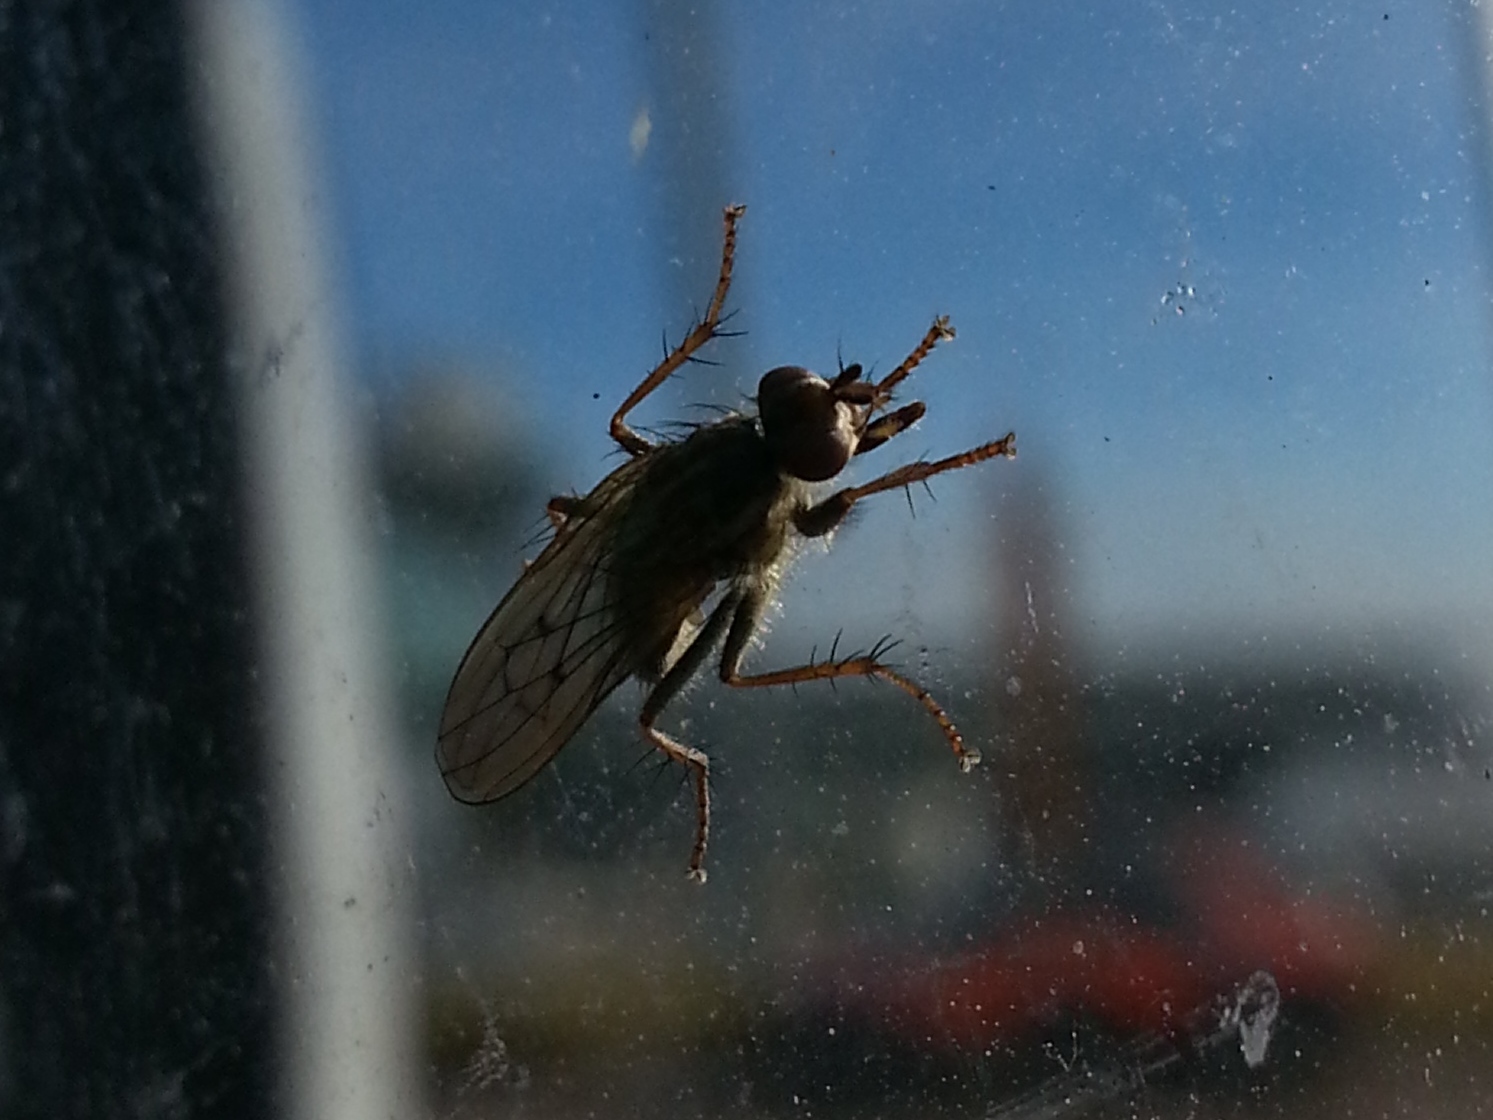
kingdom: Animalia
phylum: Arthropoda
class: Insecta
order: Diptera
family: Scathophagidae
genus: Scathophaga
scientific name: Scathophaga stercoraria
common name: Yellow dung fly
